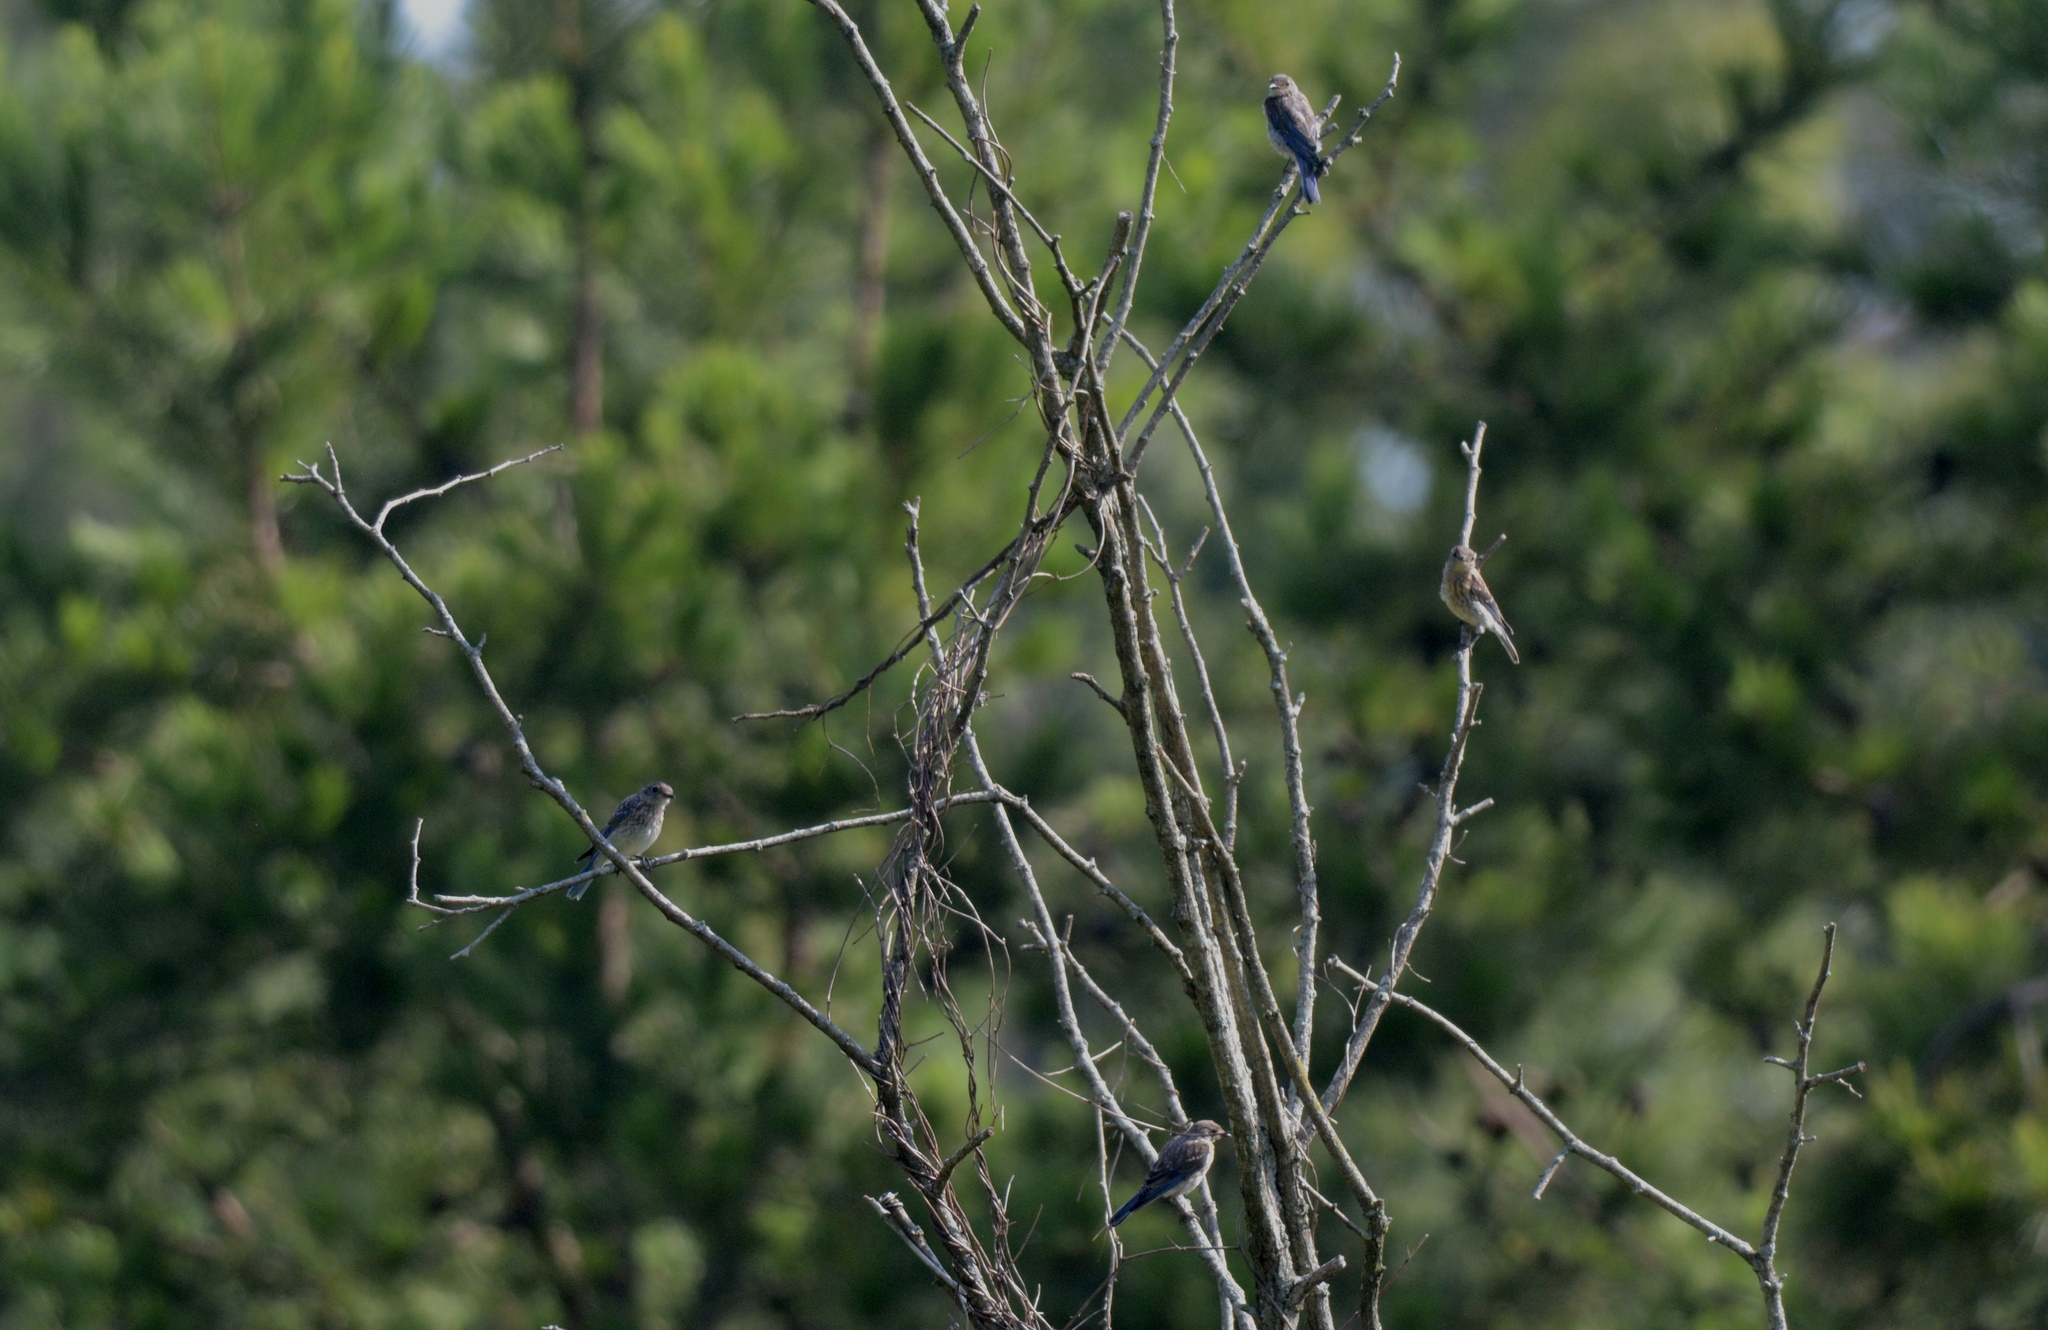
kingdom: Animalia
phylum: Chordata
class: Aves
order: Passeriformes
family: Turdidae
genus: Sialia
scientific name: Sialia sialis
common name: Eastern bluebird
